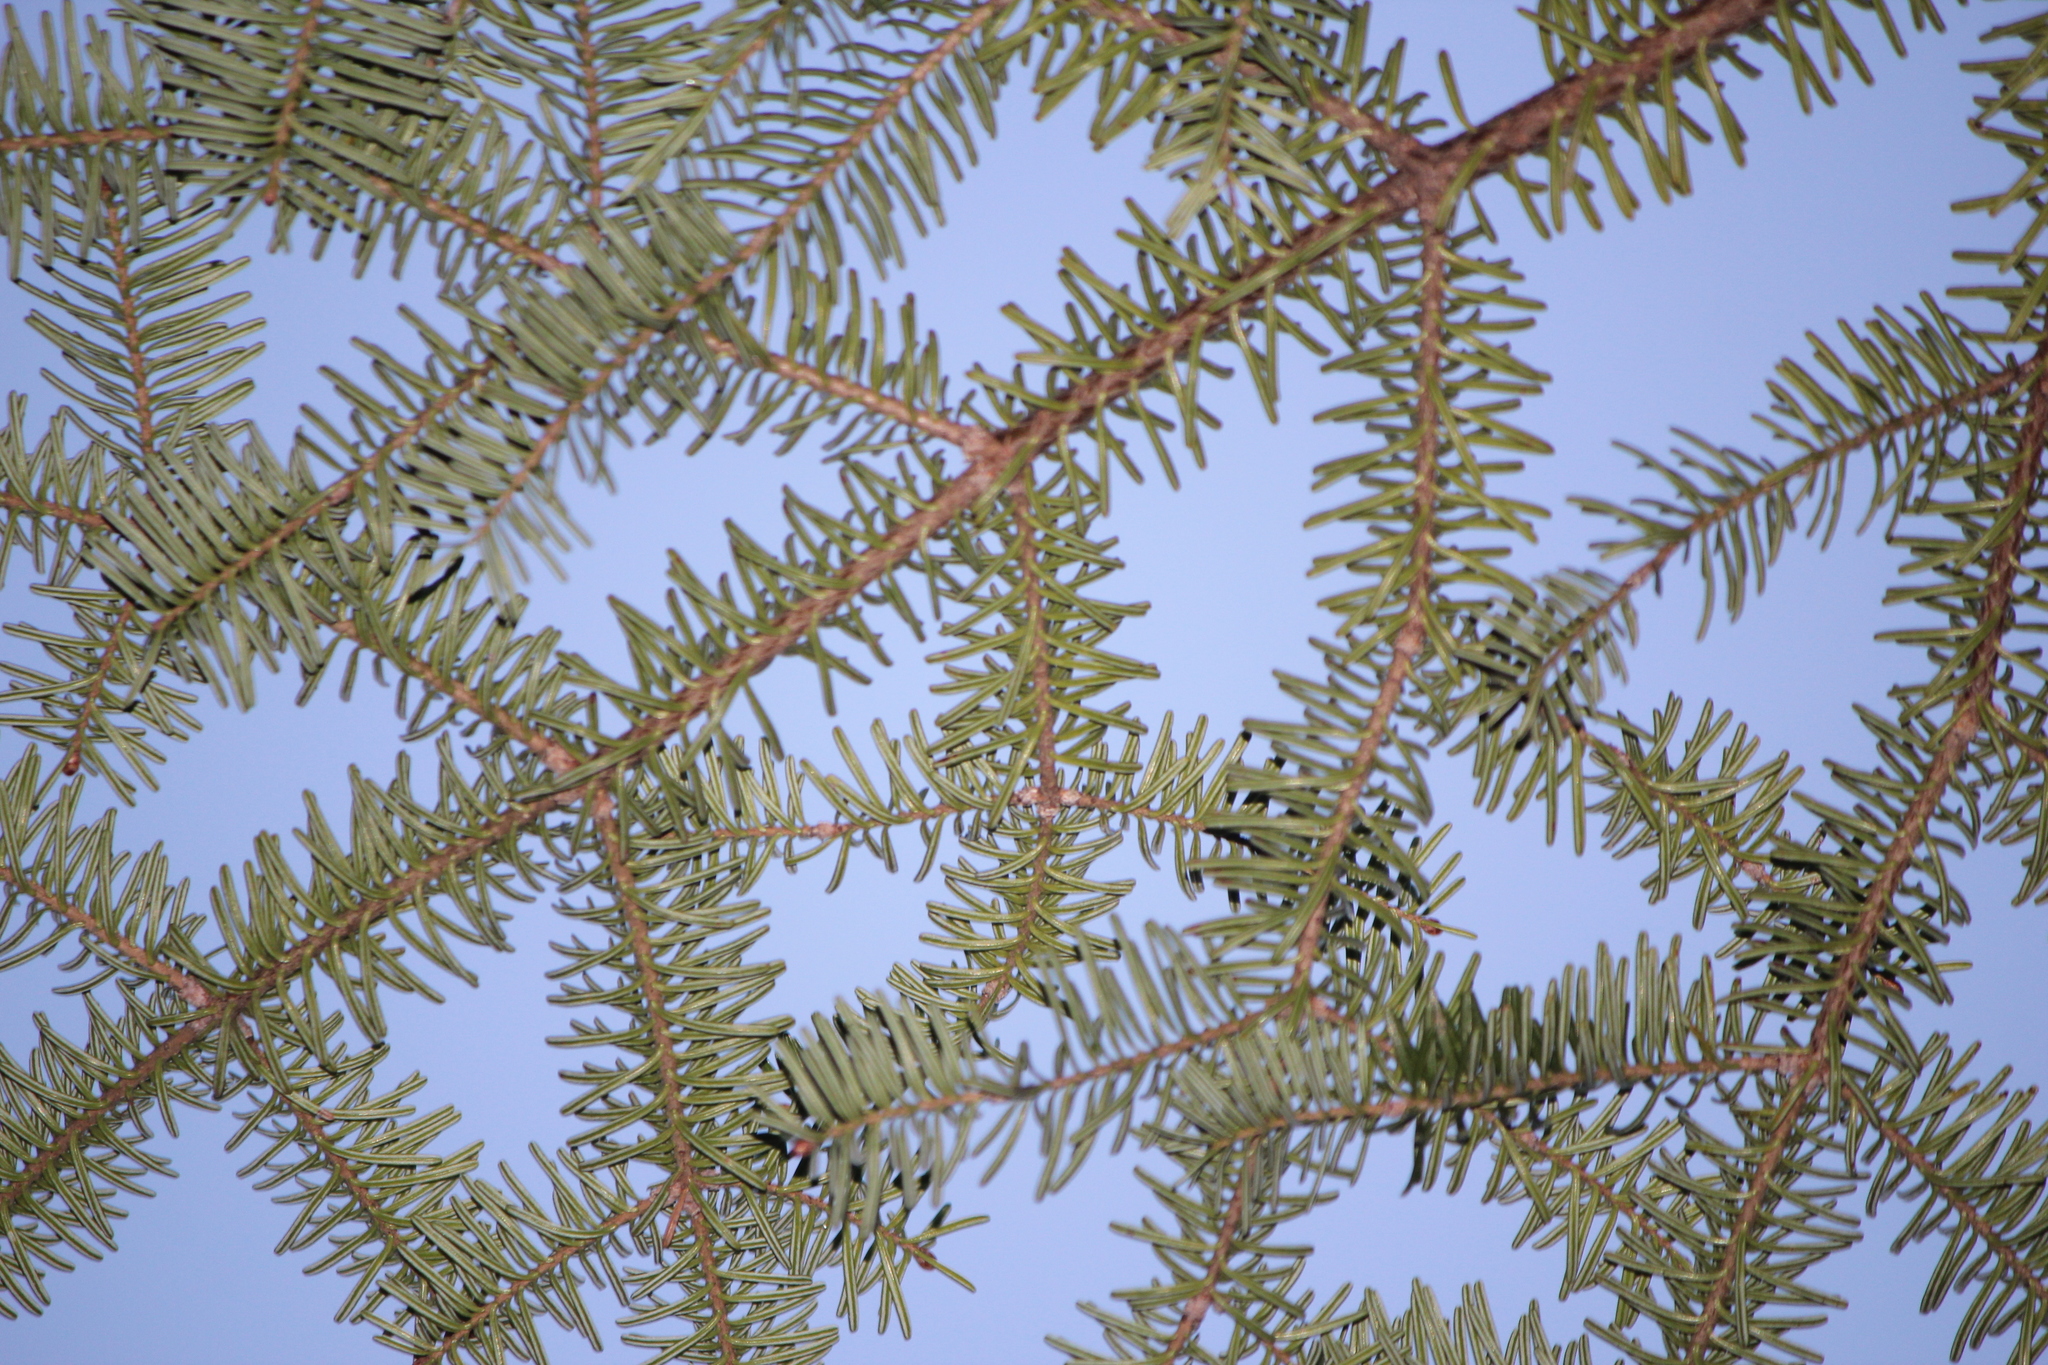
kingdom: Plantae
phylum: Tracheophyta
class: Pinopsida
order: Pinales
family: Pinaceae
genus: Abies
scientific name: Abies balsamea
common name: Balsam fir
